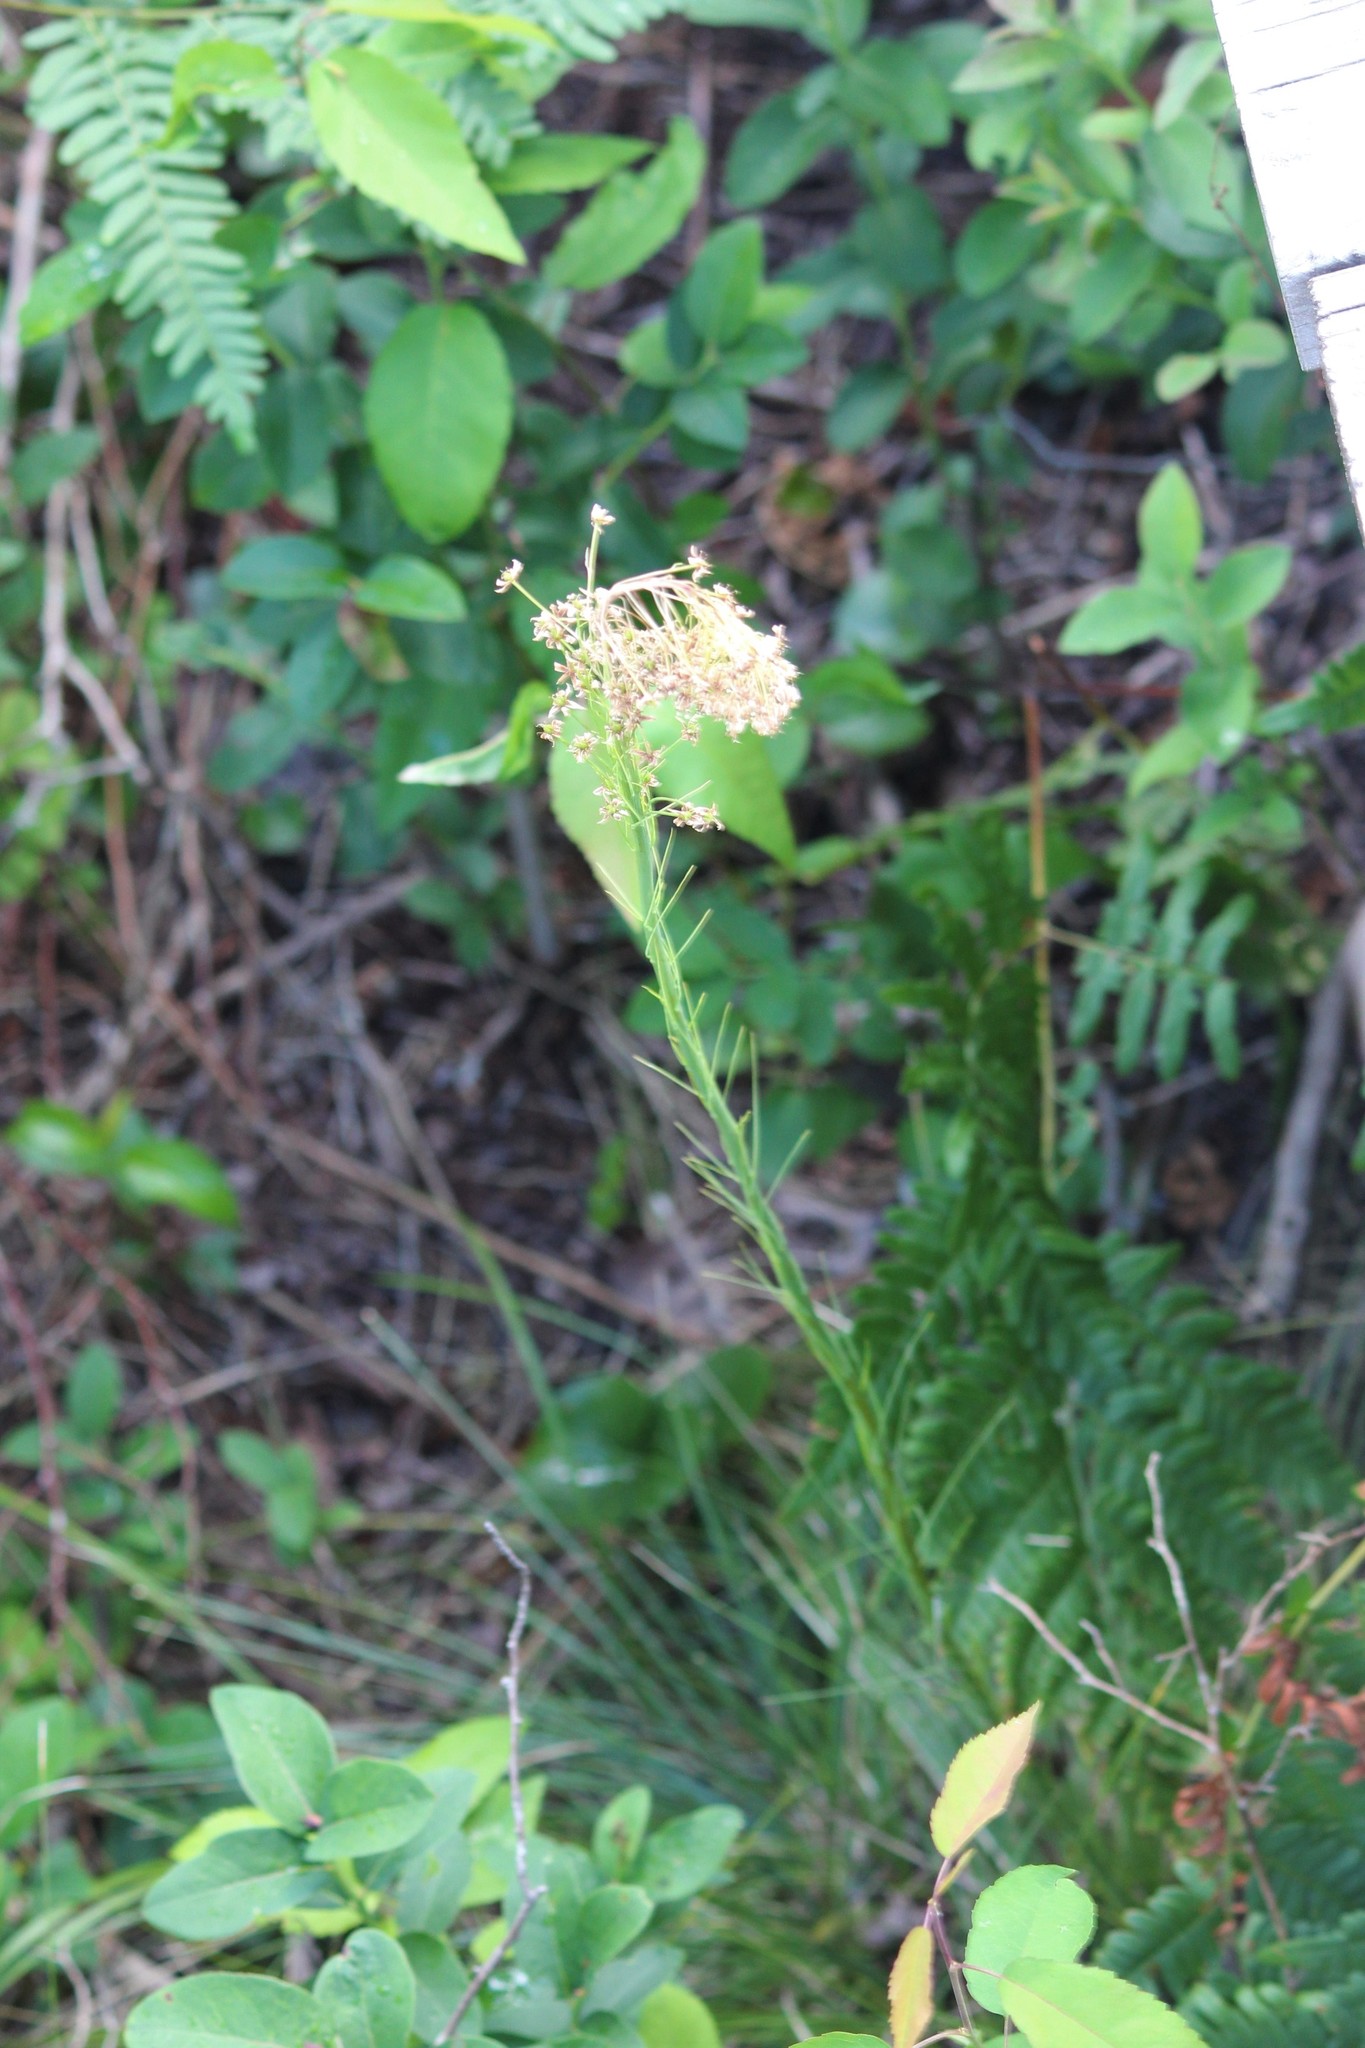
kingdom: Plantae
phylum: Tracheophyta
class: Liliopsida
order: Liliales
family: Melanthiaceae
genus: Xerophyllum
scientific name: Xerophyllum asphodeloides
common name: Mountain-asphodel
